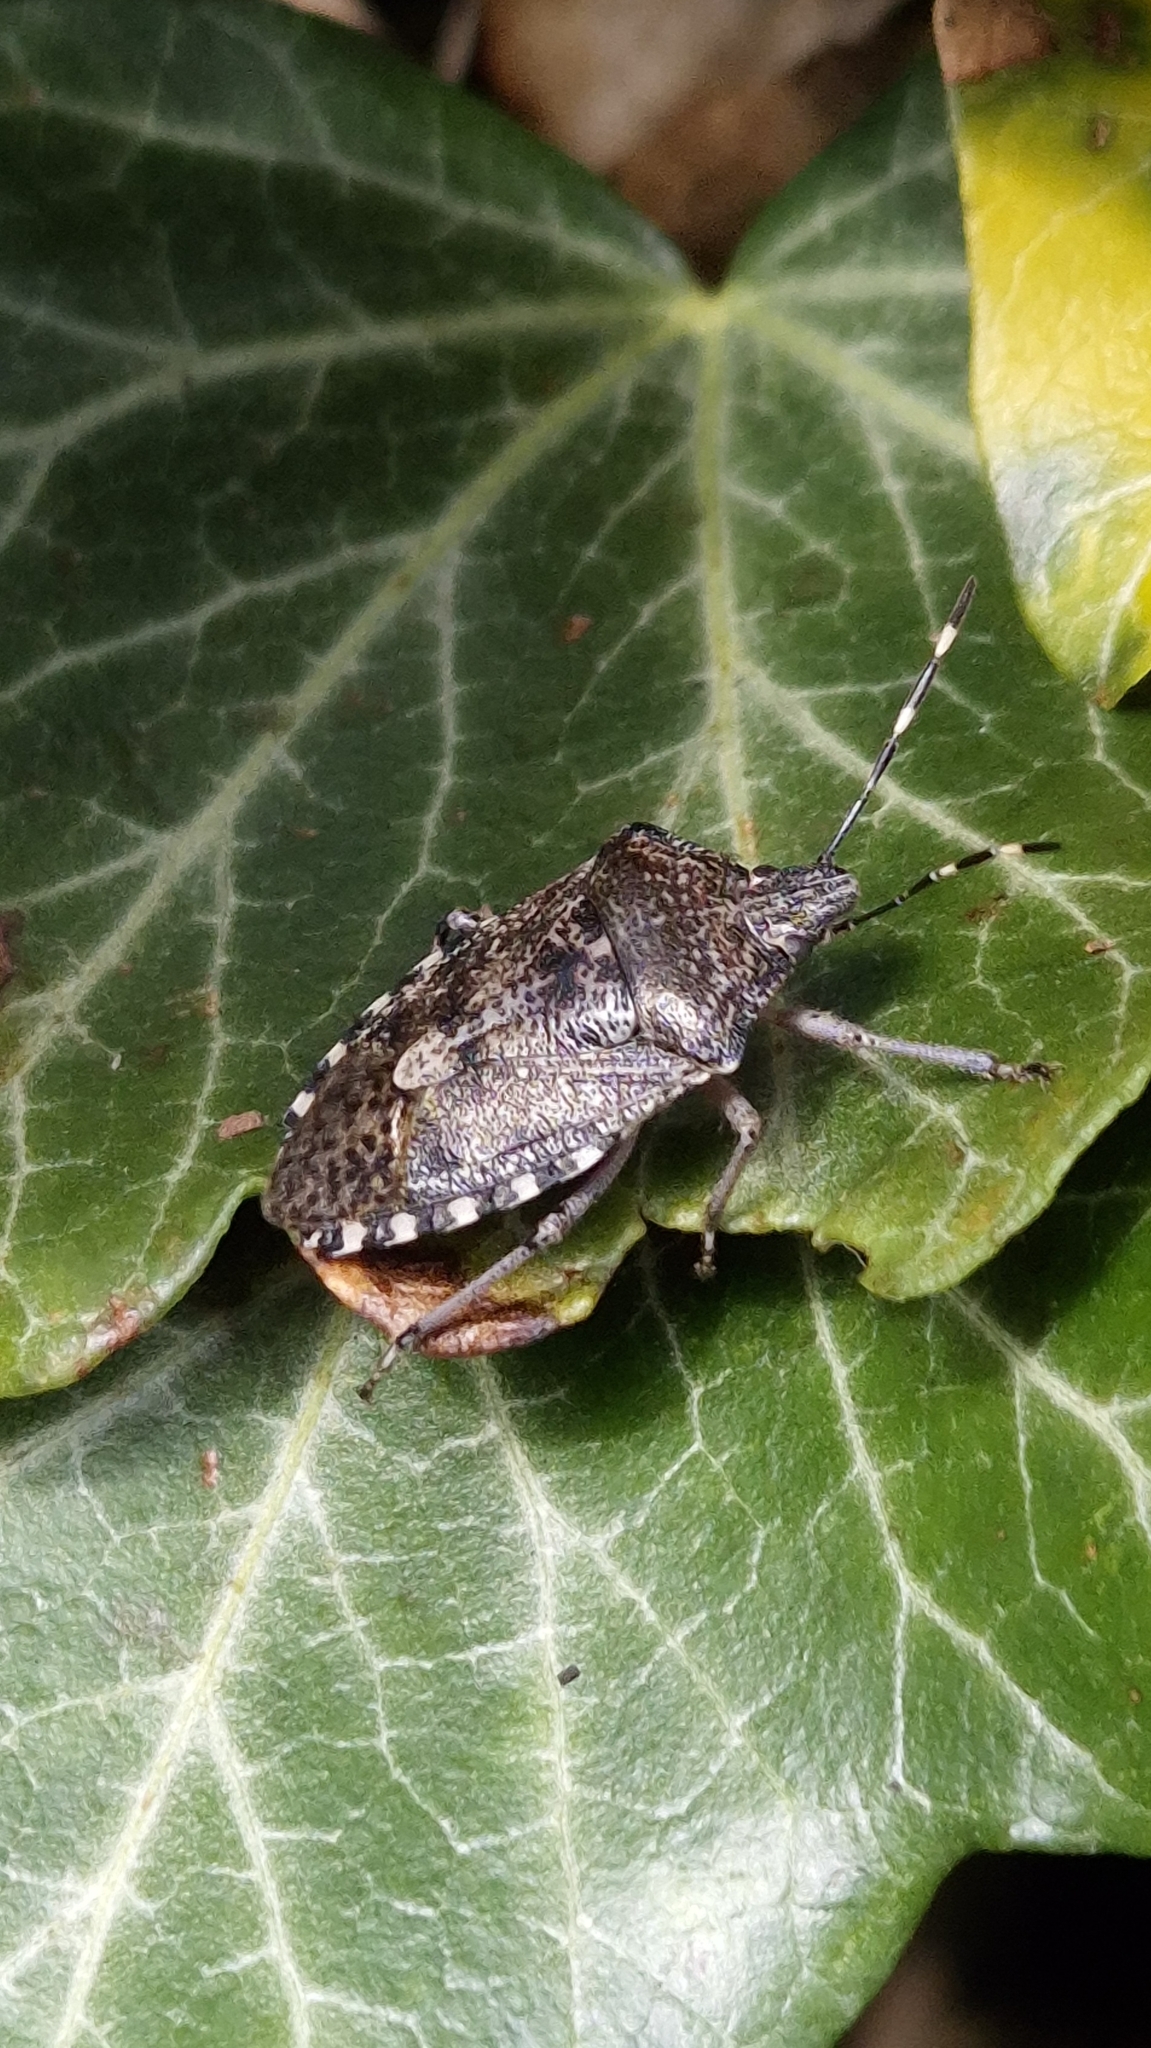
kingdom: Animalia
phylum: Arthropoda
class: Insecta
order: Hemiptera
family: Pentatomidae
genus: Rhaphigaster
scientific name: Rhaphigaster nebulosa
